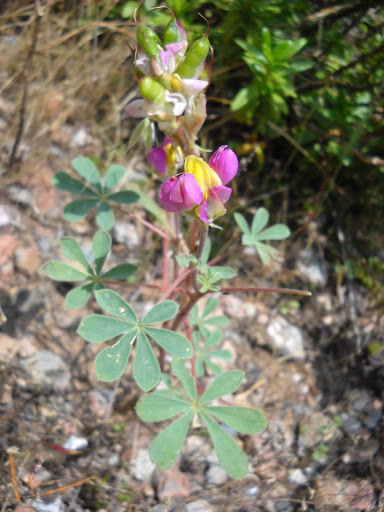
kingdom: Plantae
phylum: Tracheophyta
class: Magnoliopsida
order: Fabales
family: Fabaceae
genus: Lupinus
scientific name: Lupinus stiversii
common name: Harlequin lupine
